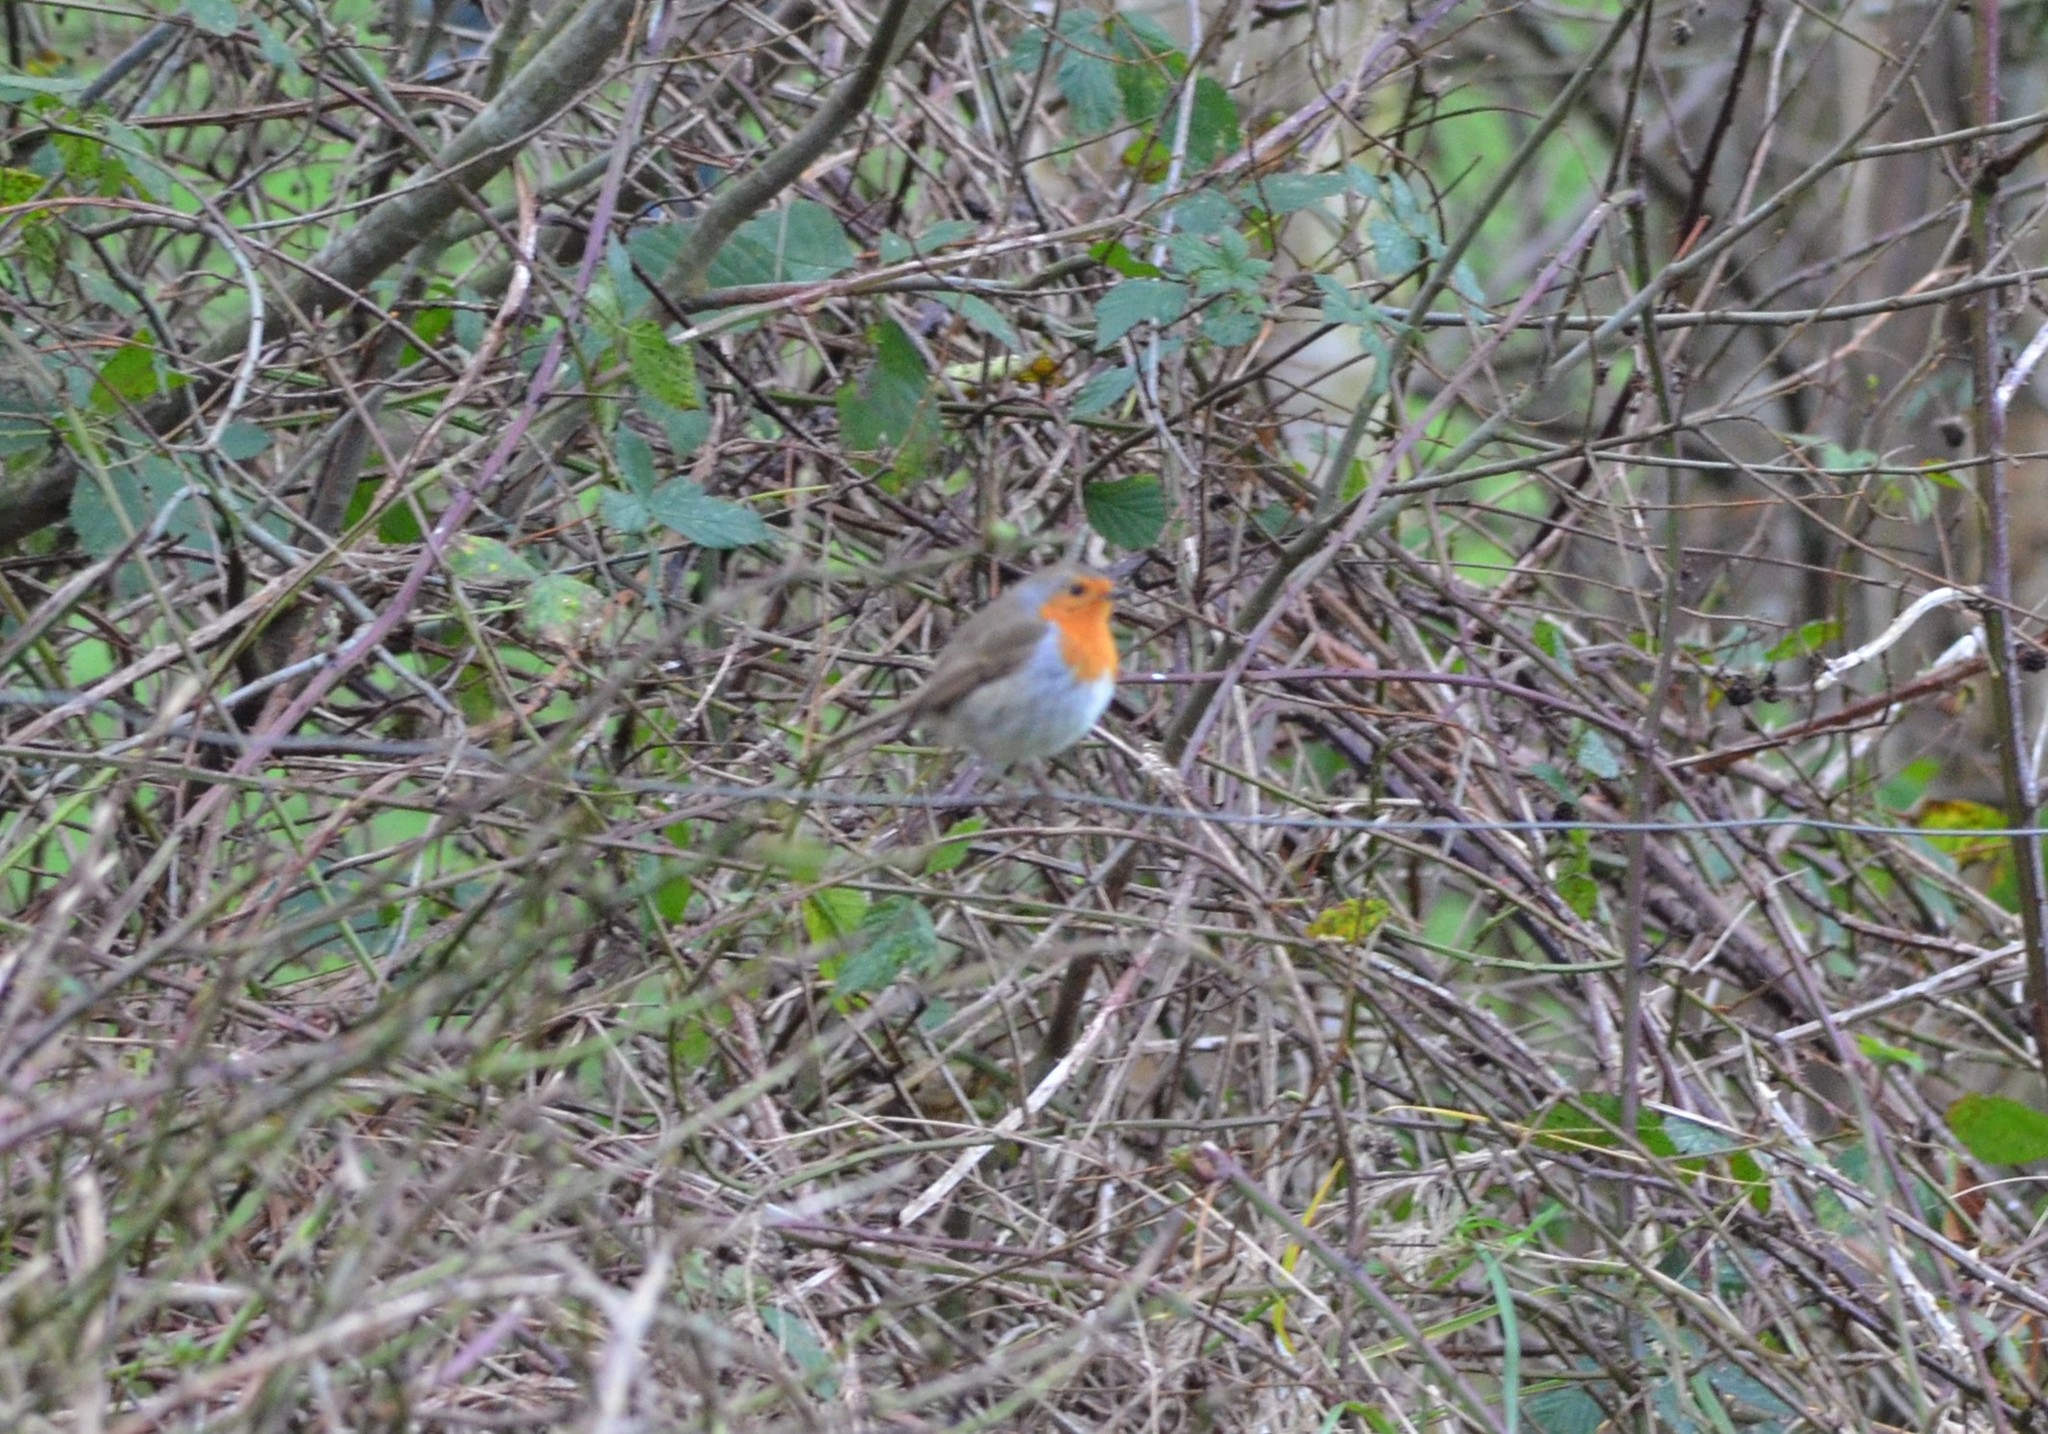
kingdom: Animalia
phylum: Chordata
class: Aves
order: Passeriformes
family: Muscicapidae
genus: Erithacus
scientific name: Erithacus rubecula
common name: European robin
